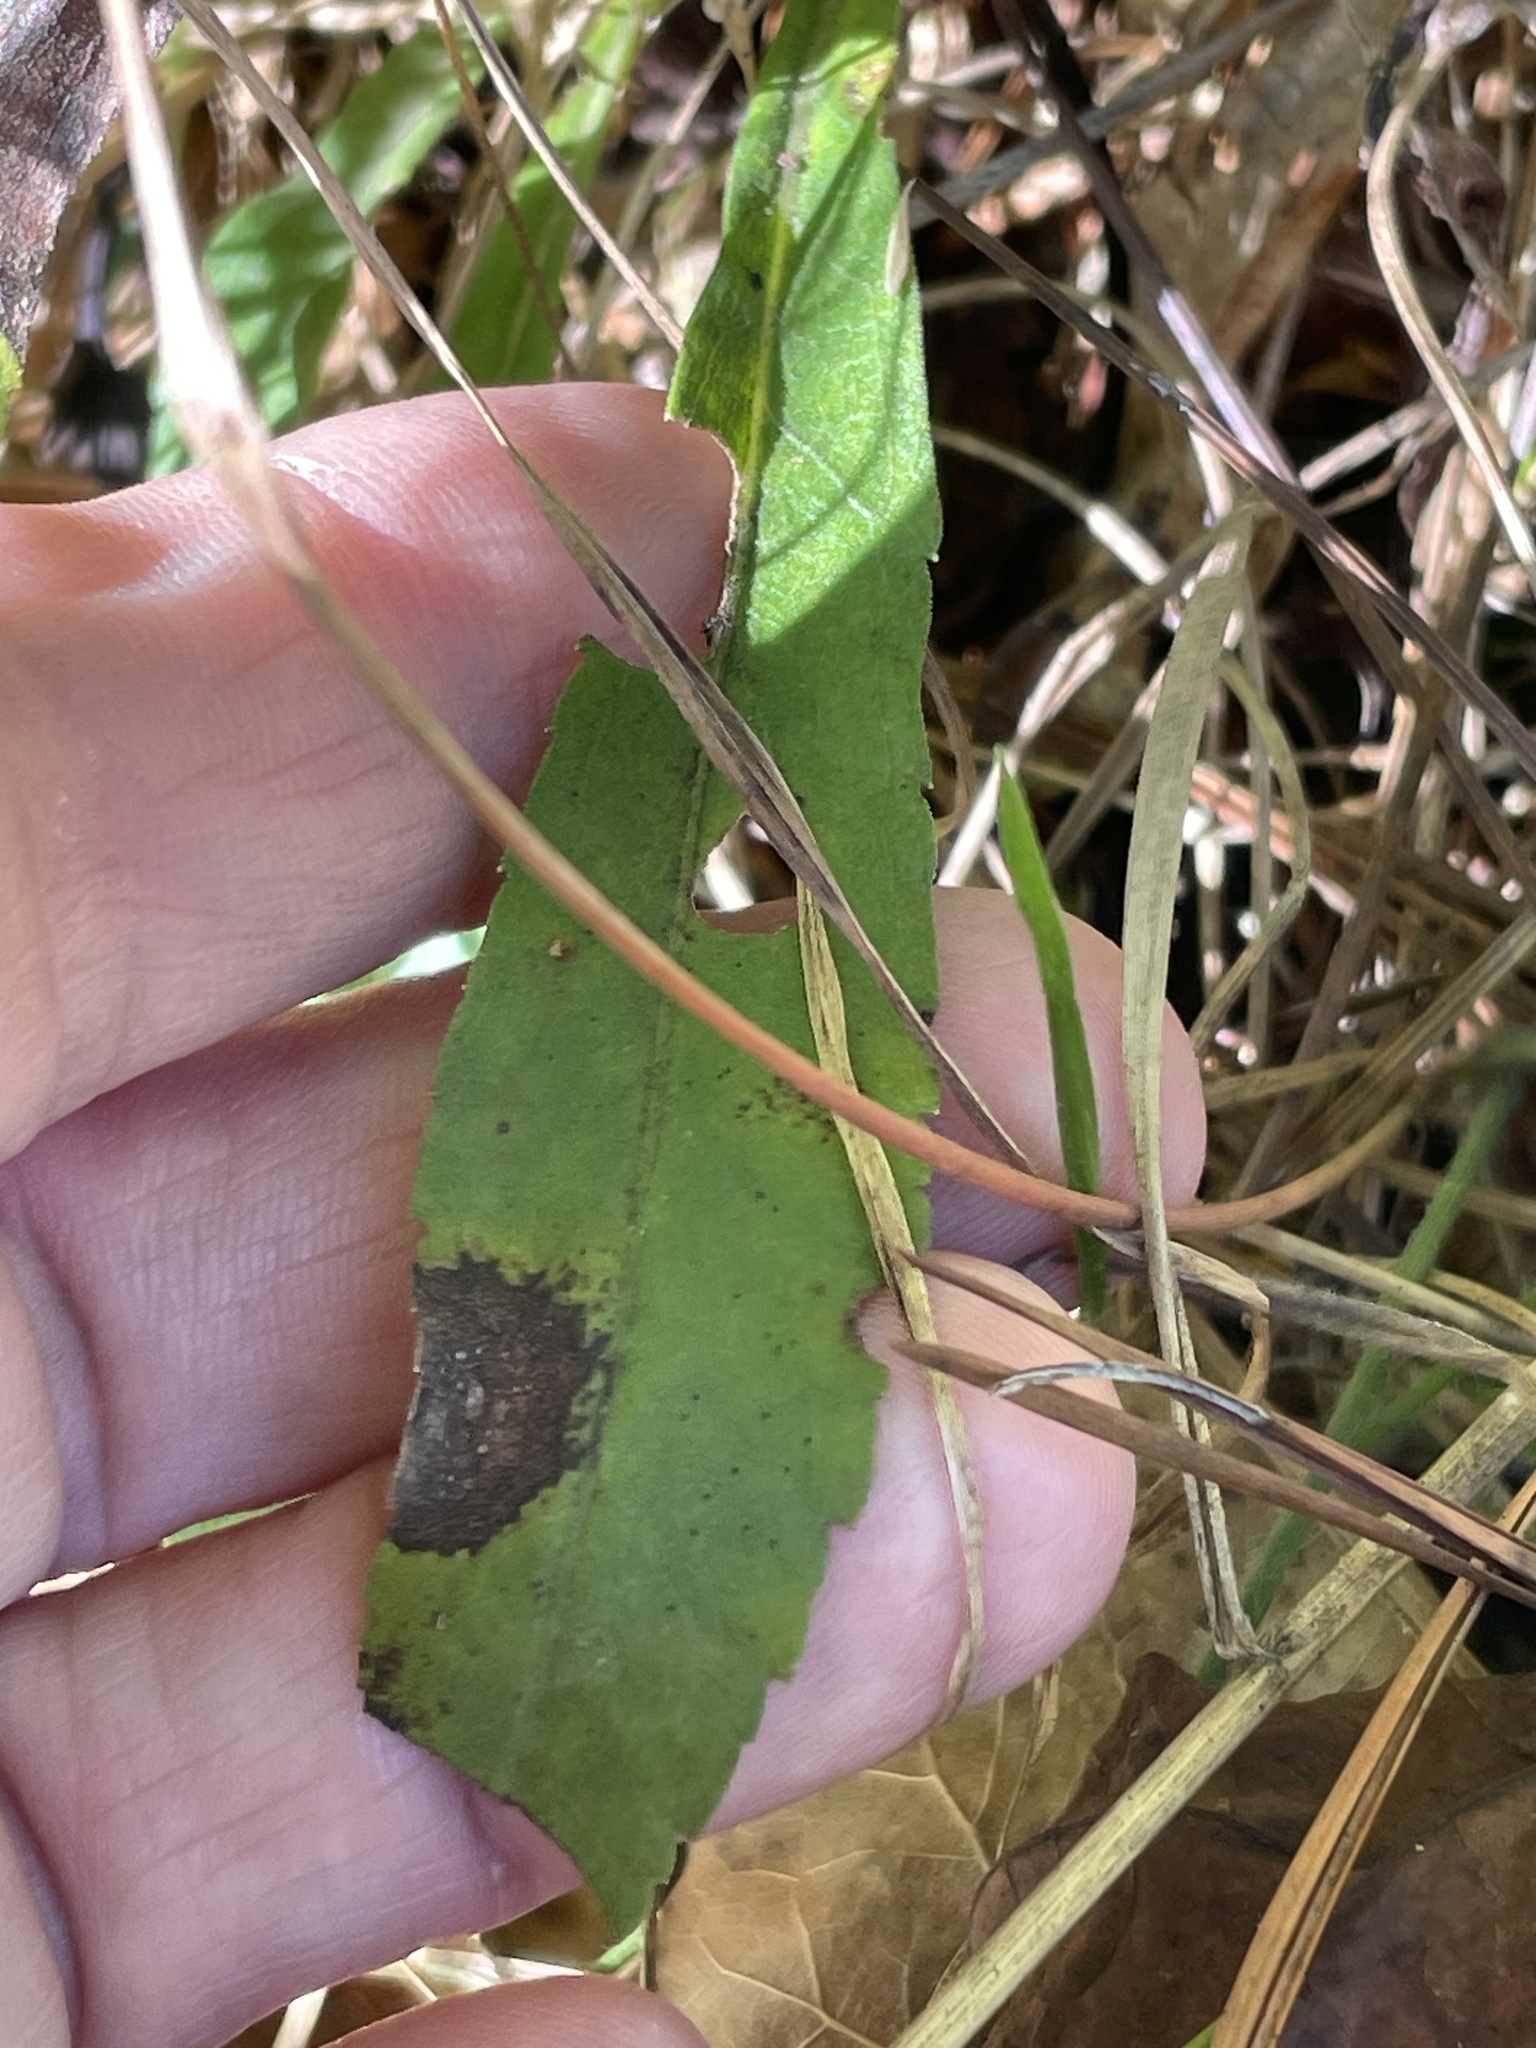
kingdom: Plantae
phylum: Tracheophyta
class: Magnoliopsida
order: Asterales
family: Asteraceae
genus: Solidago
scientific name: Solidago nemoralis
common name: Grey goldenrod
